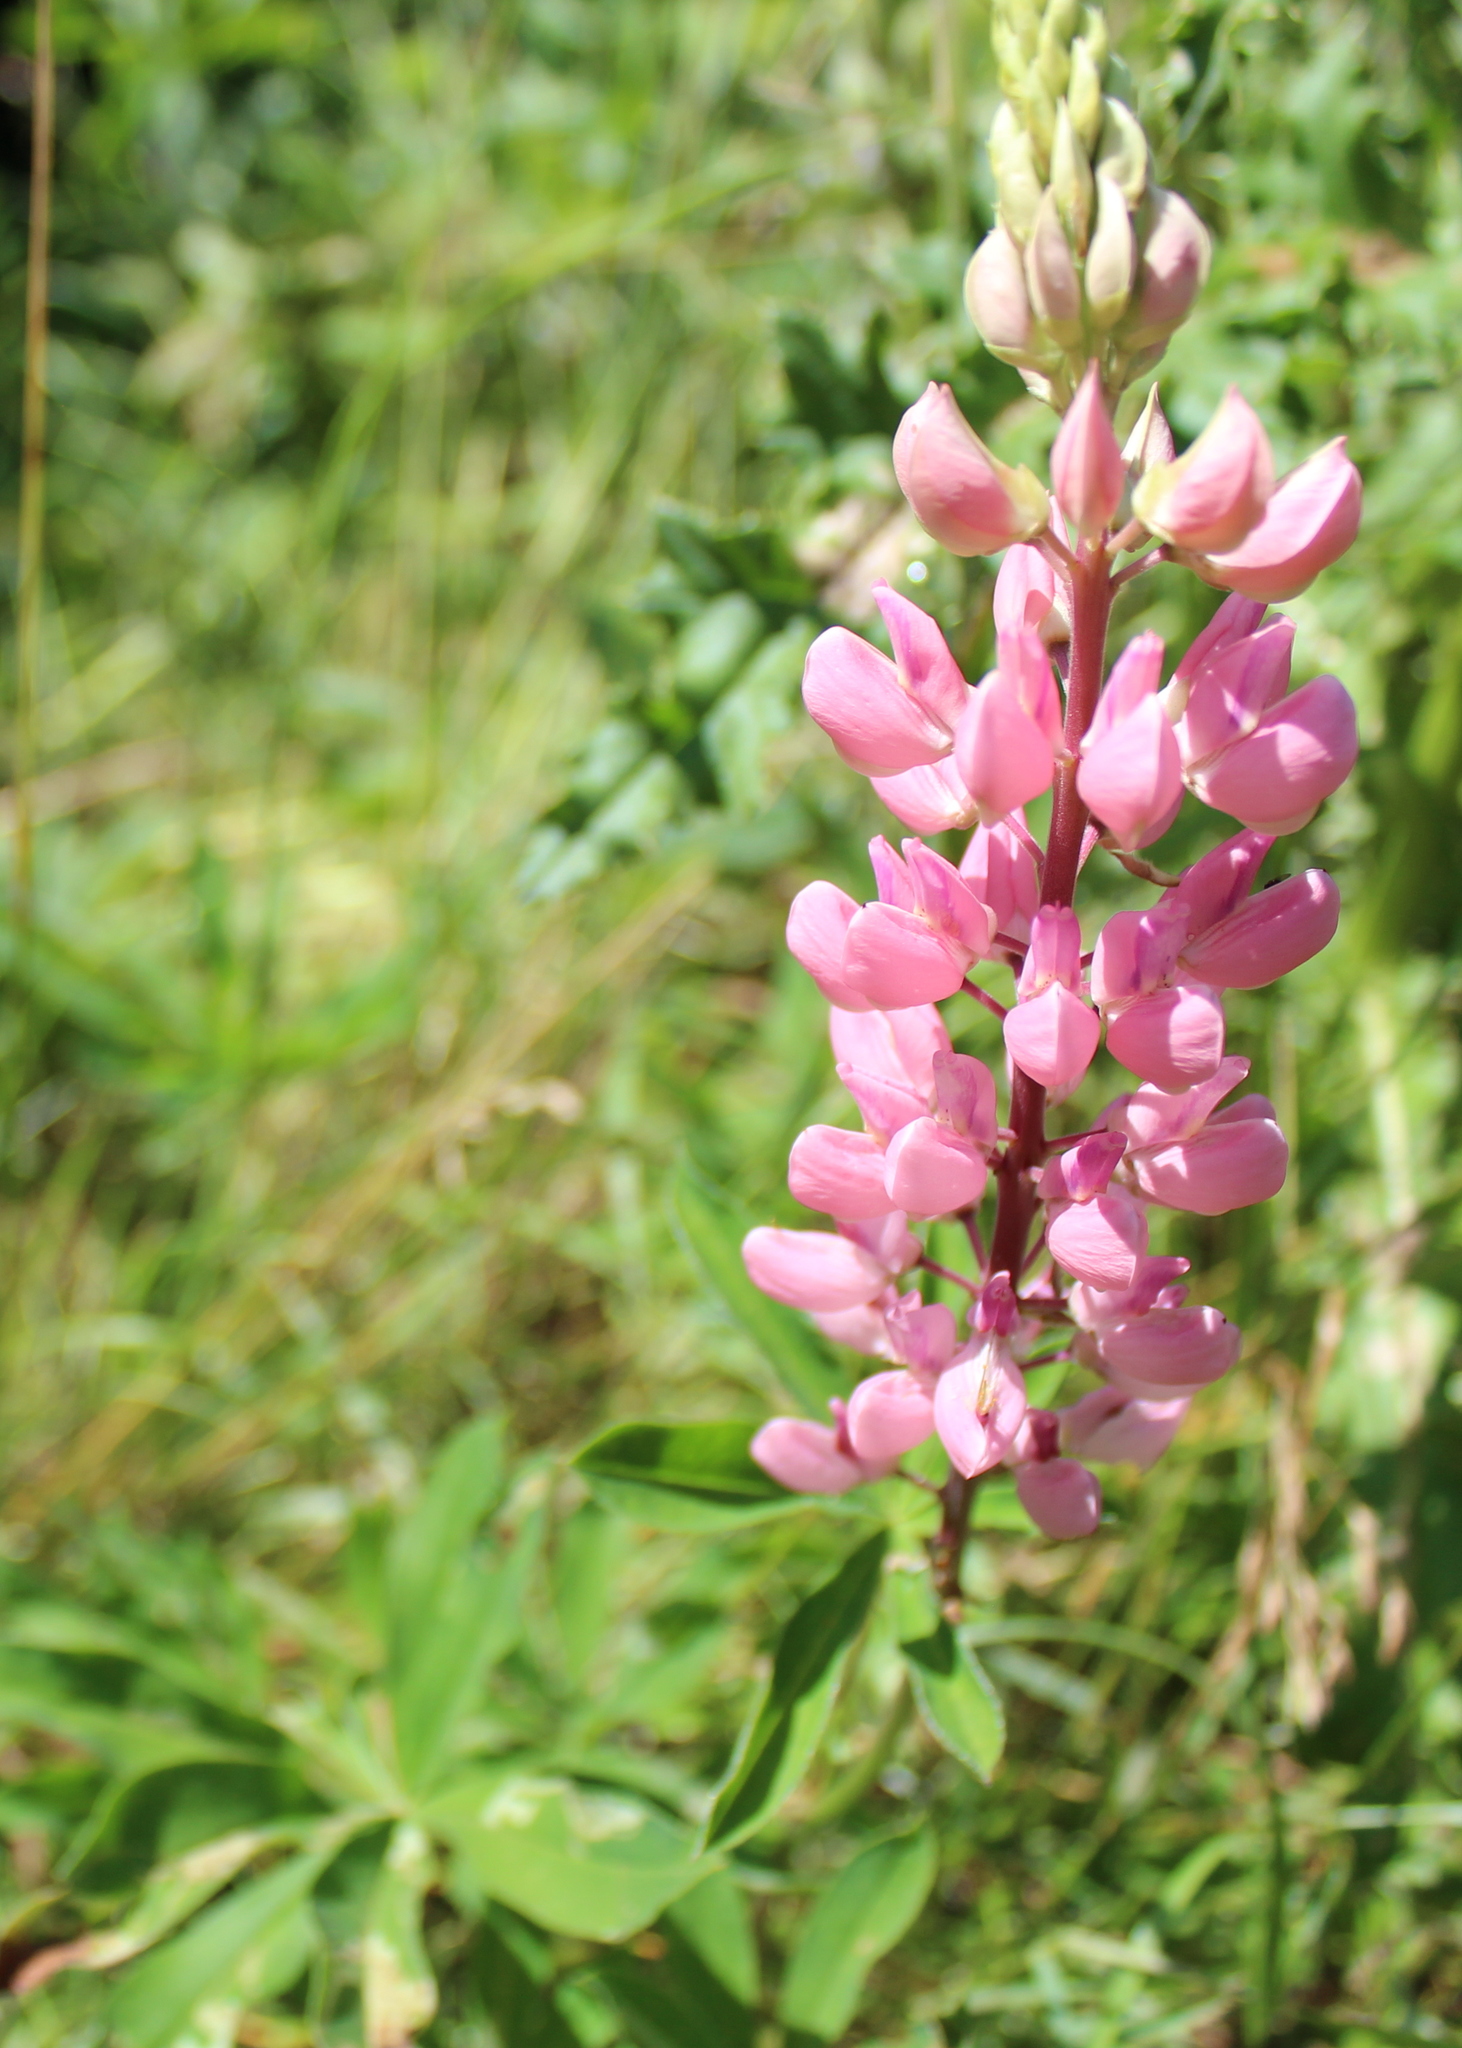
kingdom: Plantae
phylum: Tracheophyta
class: Magnoliopsida
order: Fabales
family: Fabaceae
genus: Lupinus
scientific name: Lupinus polyphyllus
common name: Garden lupin
